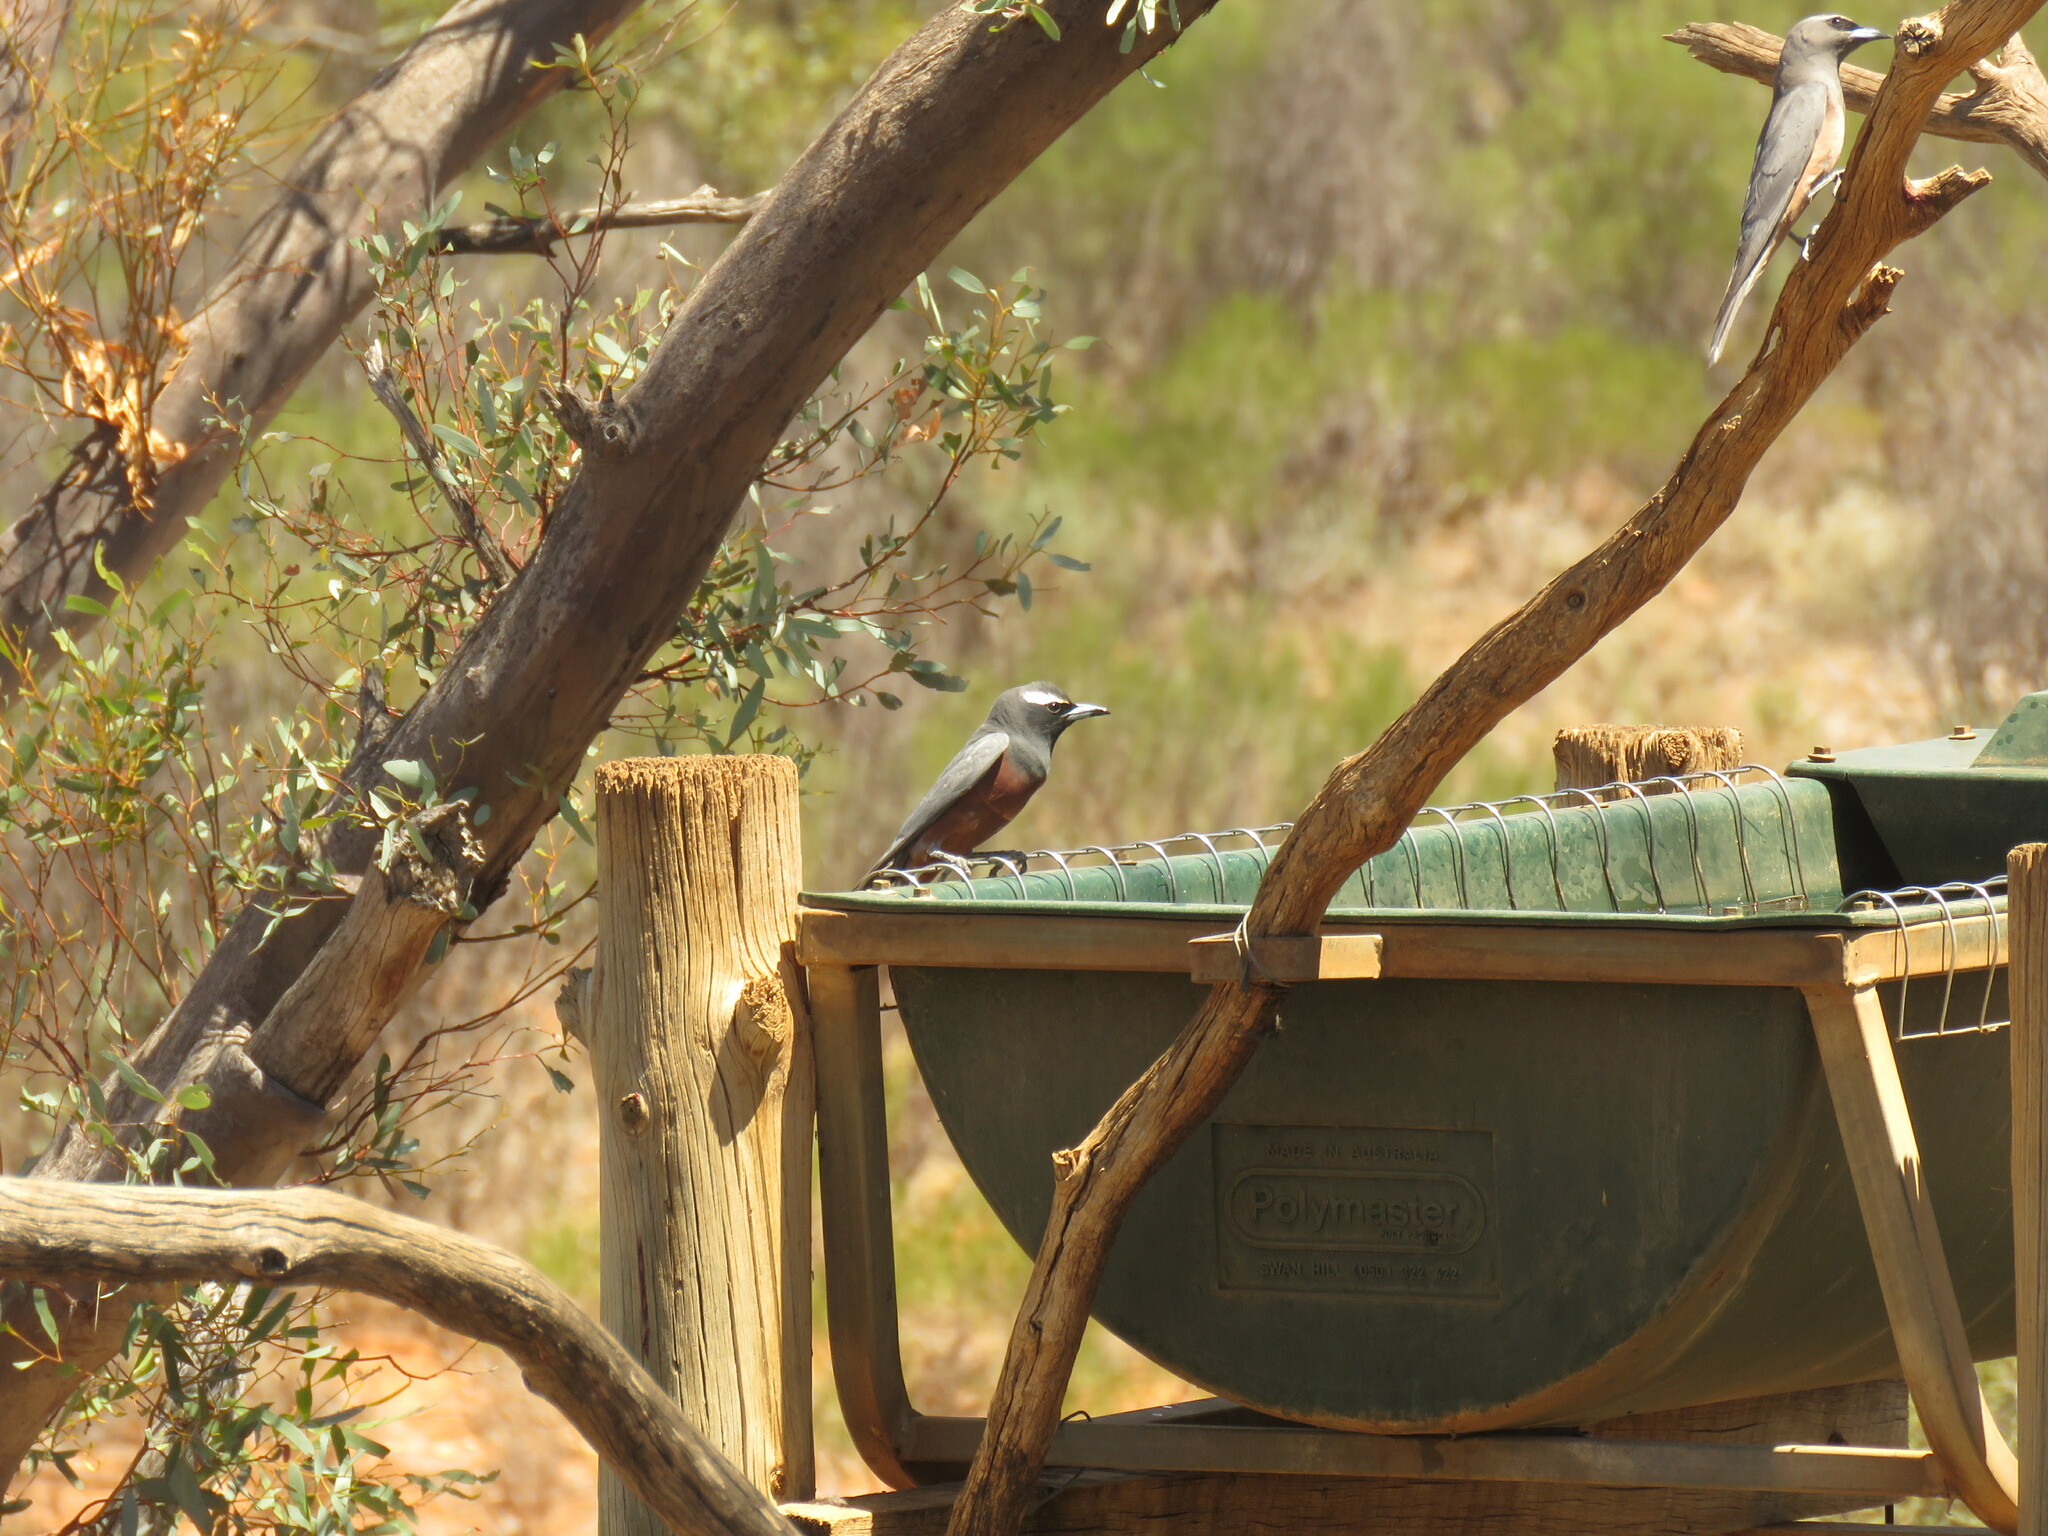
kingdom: Animalia
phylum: Chordata
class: Aves
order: Passeriformes
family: Artamidae
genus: Artamus
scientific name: Artamus superciliosus
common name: White-browed woodswallow
